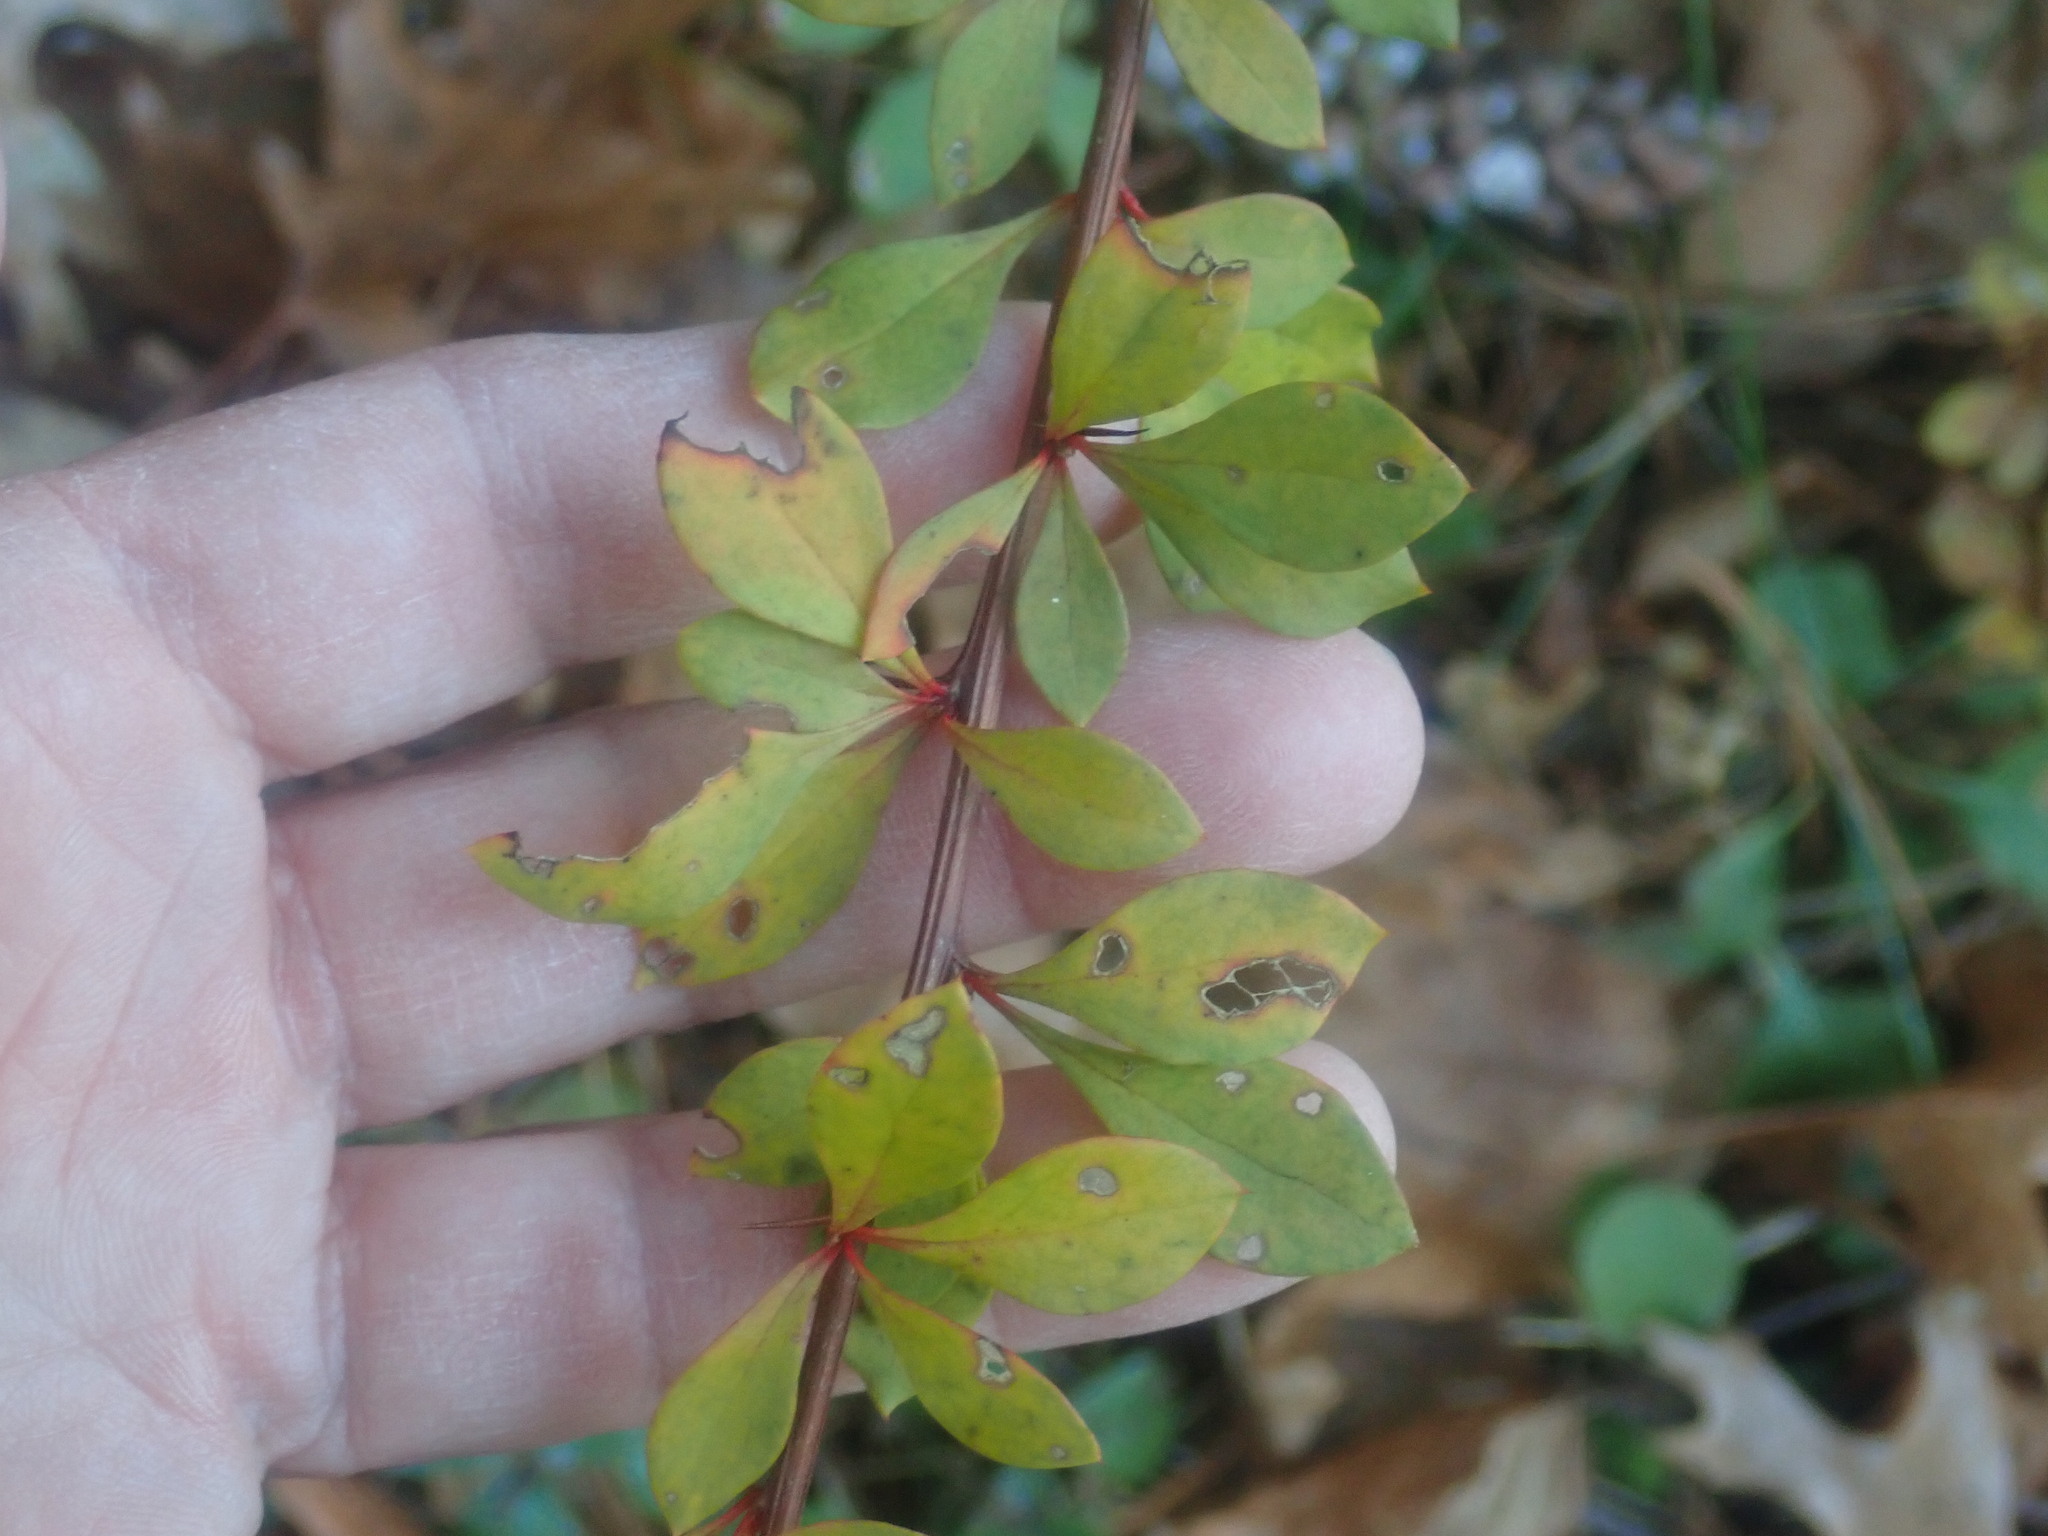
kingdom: Plantae
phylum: Tracheophyta
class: Magnoliopsida
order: Ranunculales
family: Berberidaceae
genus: Berberis
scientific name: Berberis thunbergii
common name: Japanese barberry
